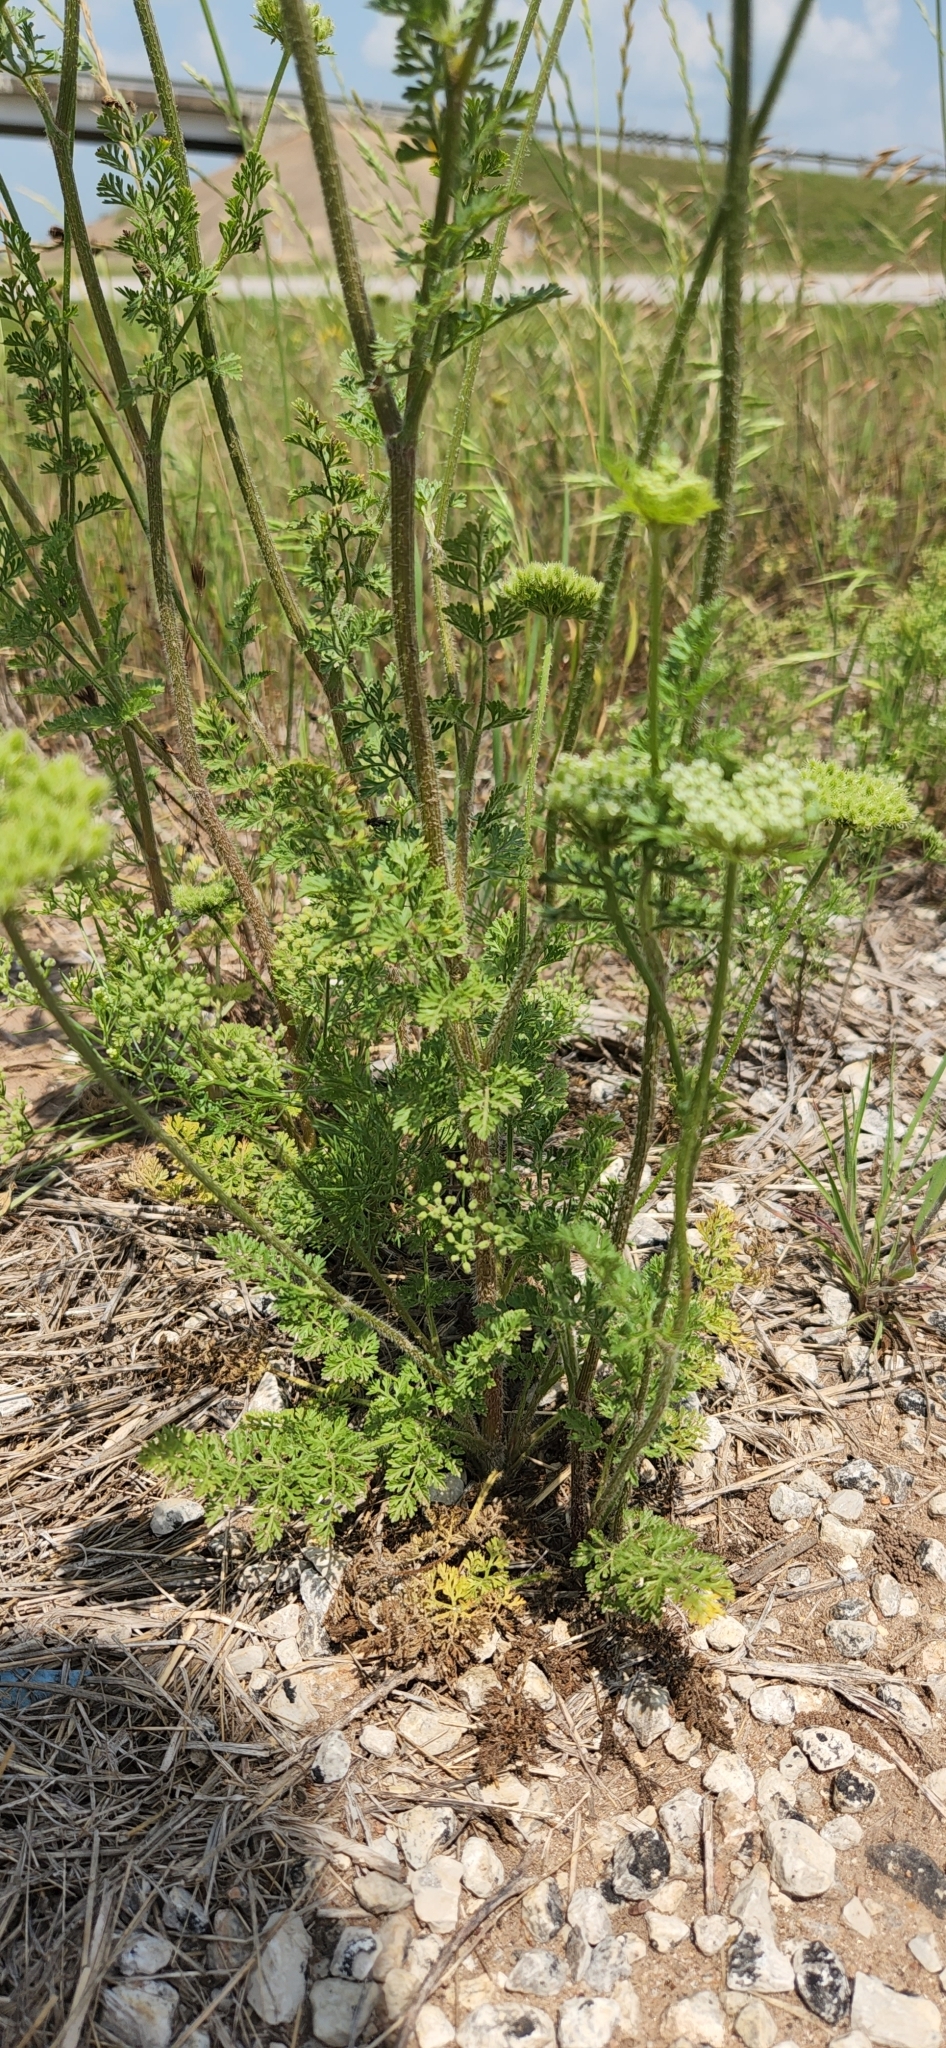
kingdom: Plantae
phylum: Tracheophyta
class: Magnoliopsida
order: Apiales
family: Apiaceae
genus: Daucus
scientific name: Daucus pusillus
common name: Southwest wild carrot
